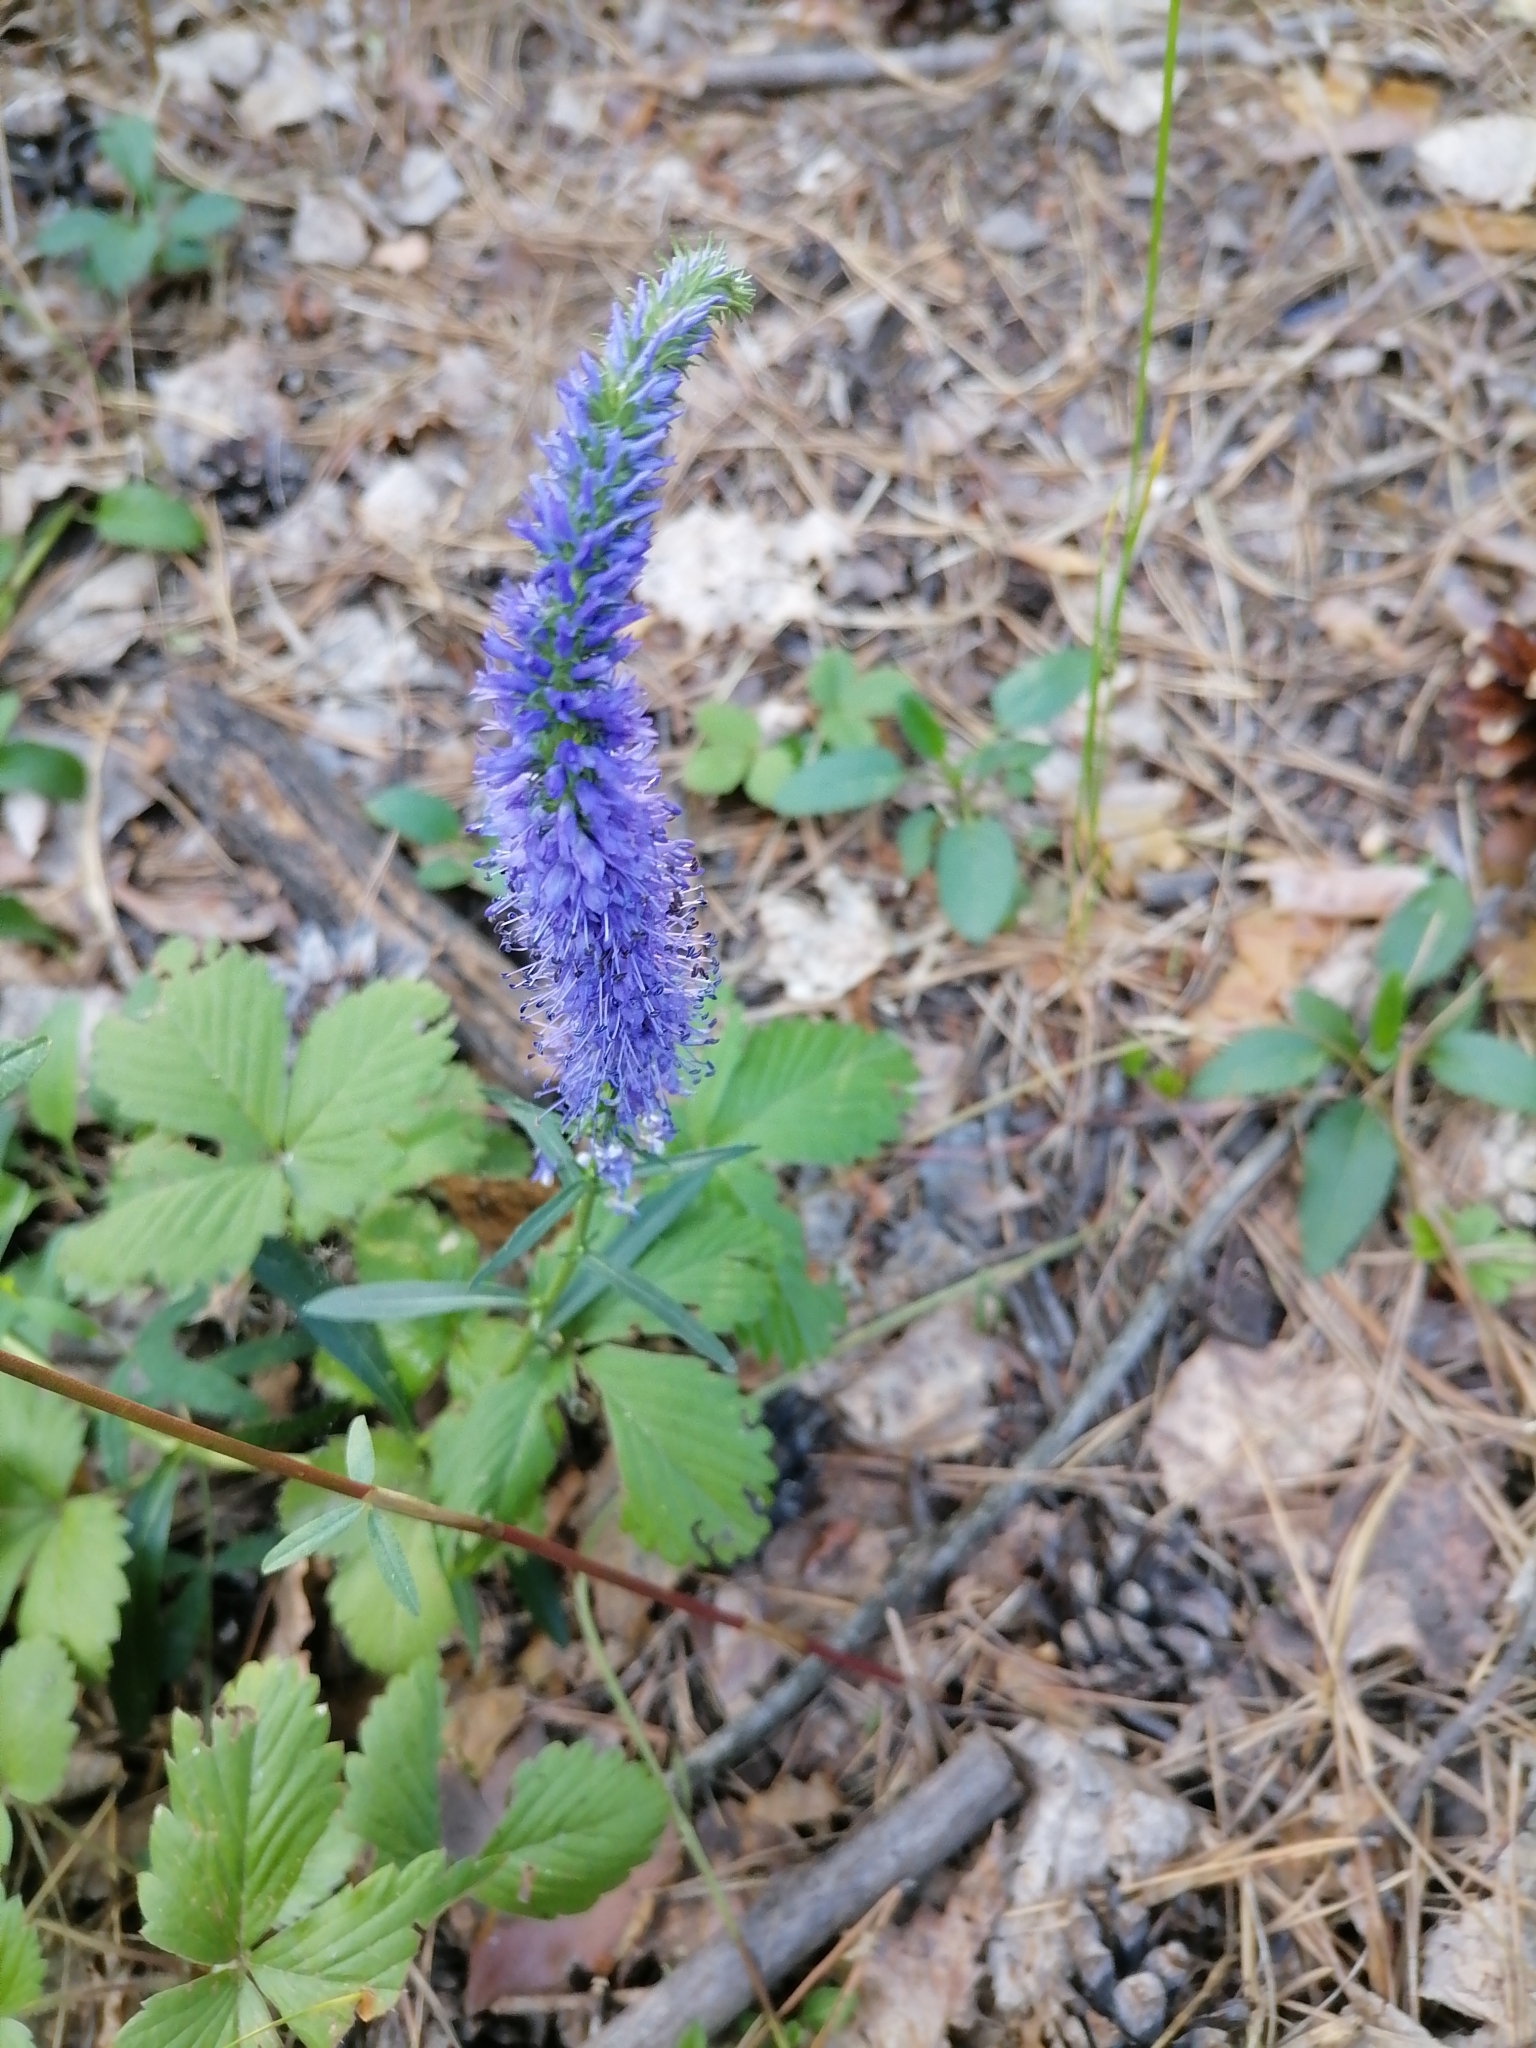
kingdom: Plantae
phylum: Tracheophyta
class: Magnoliopsida
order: Lamiales
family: Plantaginaceae
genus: Veronica
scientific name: Veronica spicata
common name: Spiked speedwell
